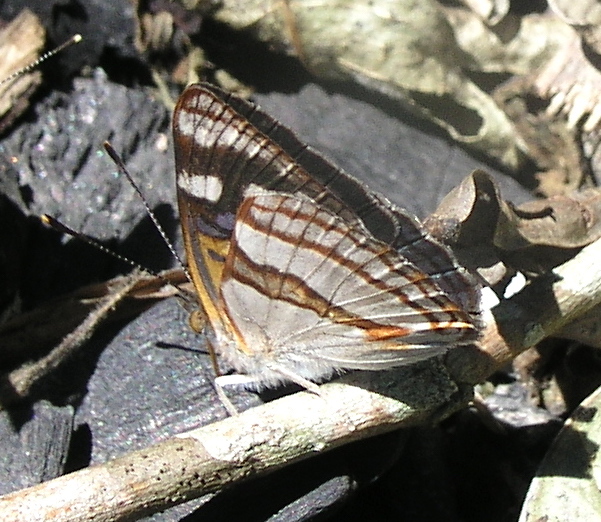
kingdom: Animalia
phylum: Arthropoda
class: Insecta
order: Lepidoptera
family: Nymphalidae
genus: Dynamine
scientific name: Dynamine tithia
